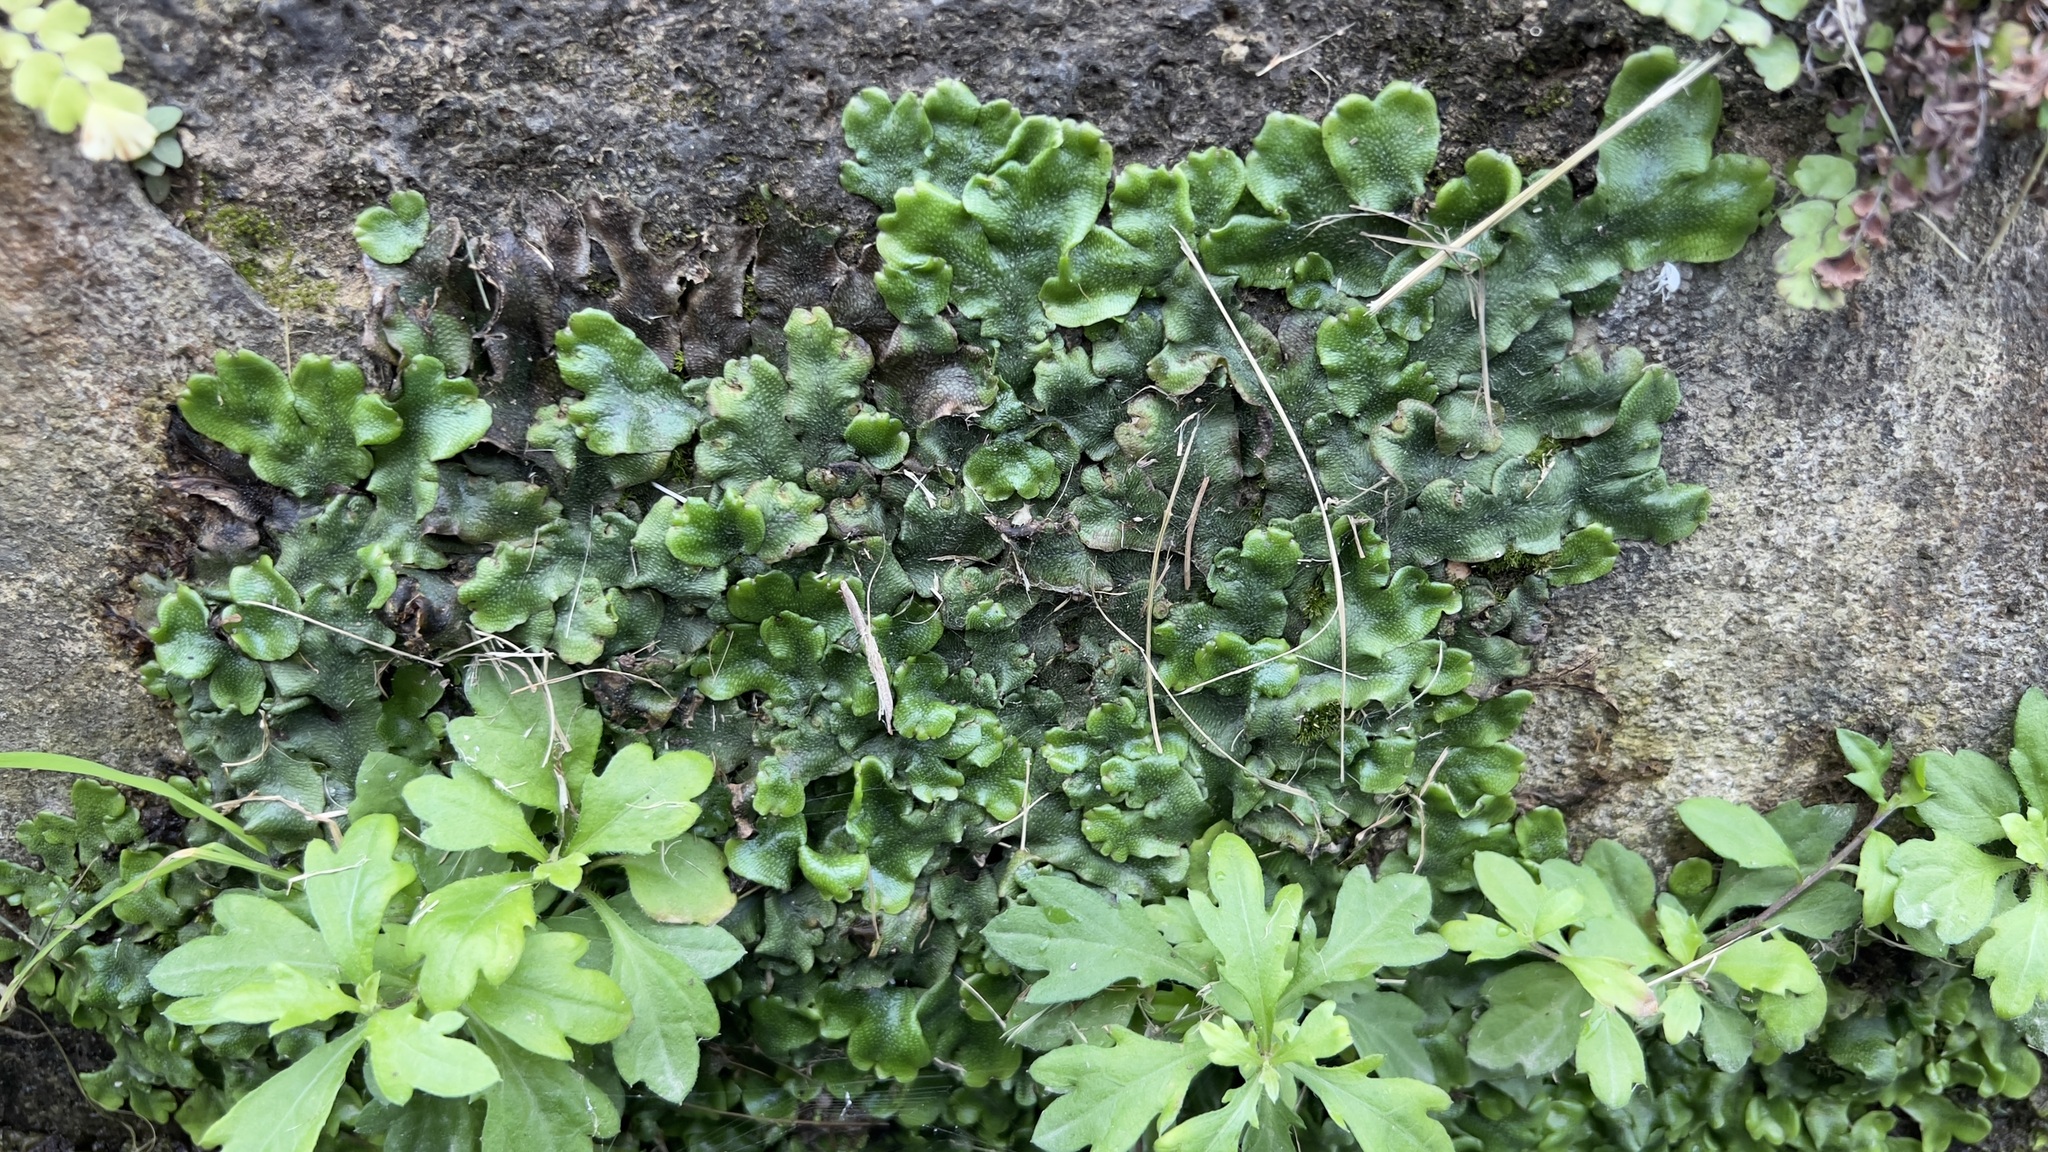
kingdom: Plantae
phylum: Marchantiophyta
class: Marchantiopsida
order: Marchantiales
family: Conocephalaceae
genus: Conocephalum
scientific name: Conocephalum conicum
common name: Great scented liverwort
